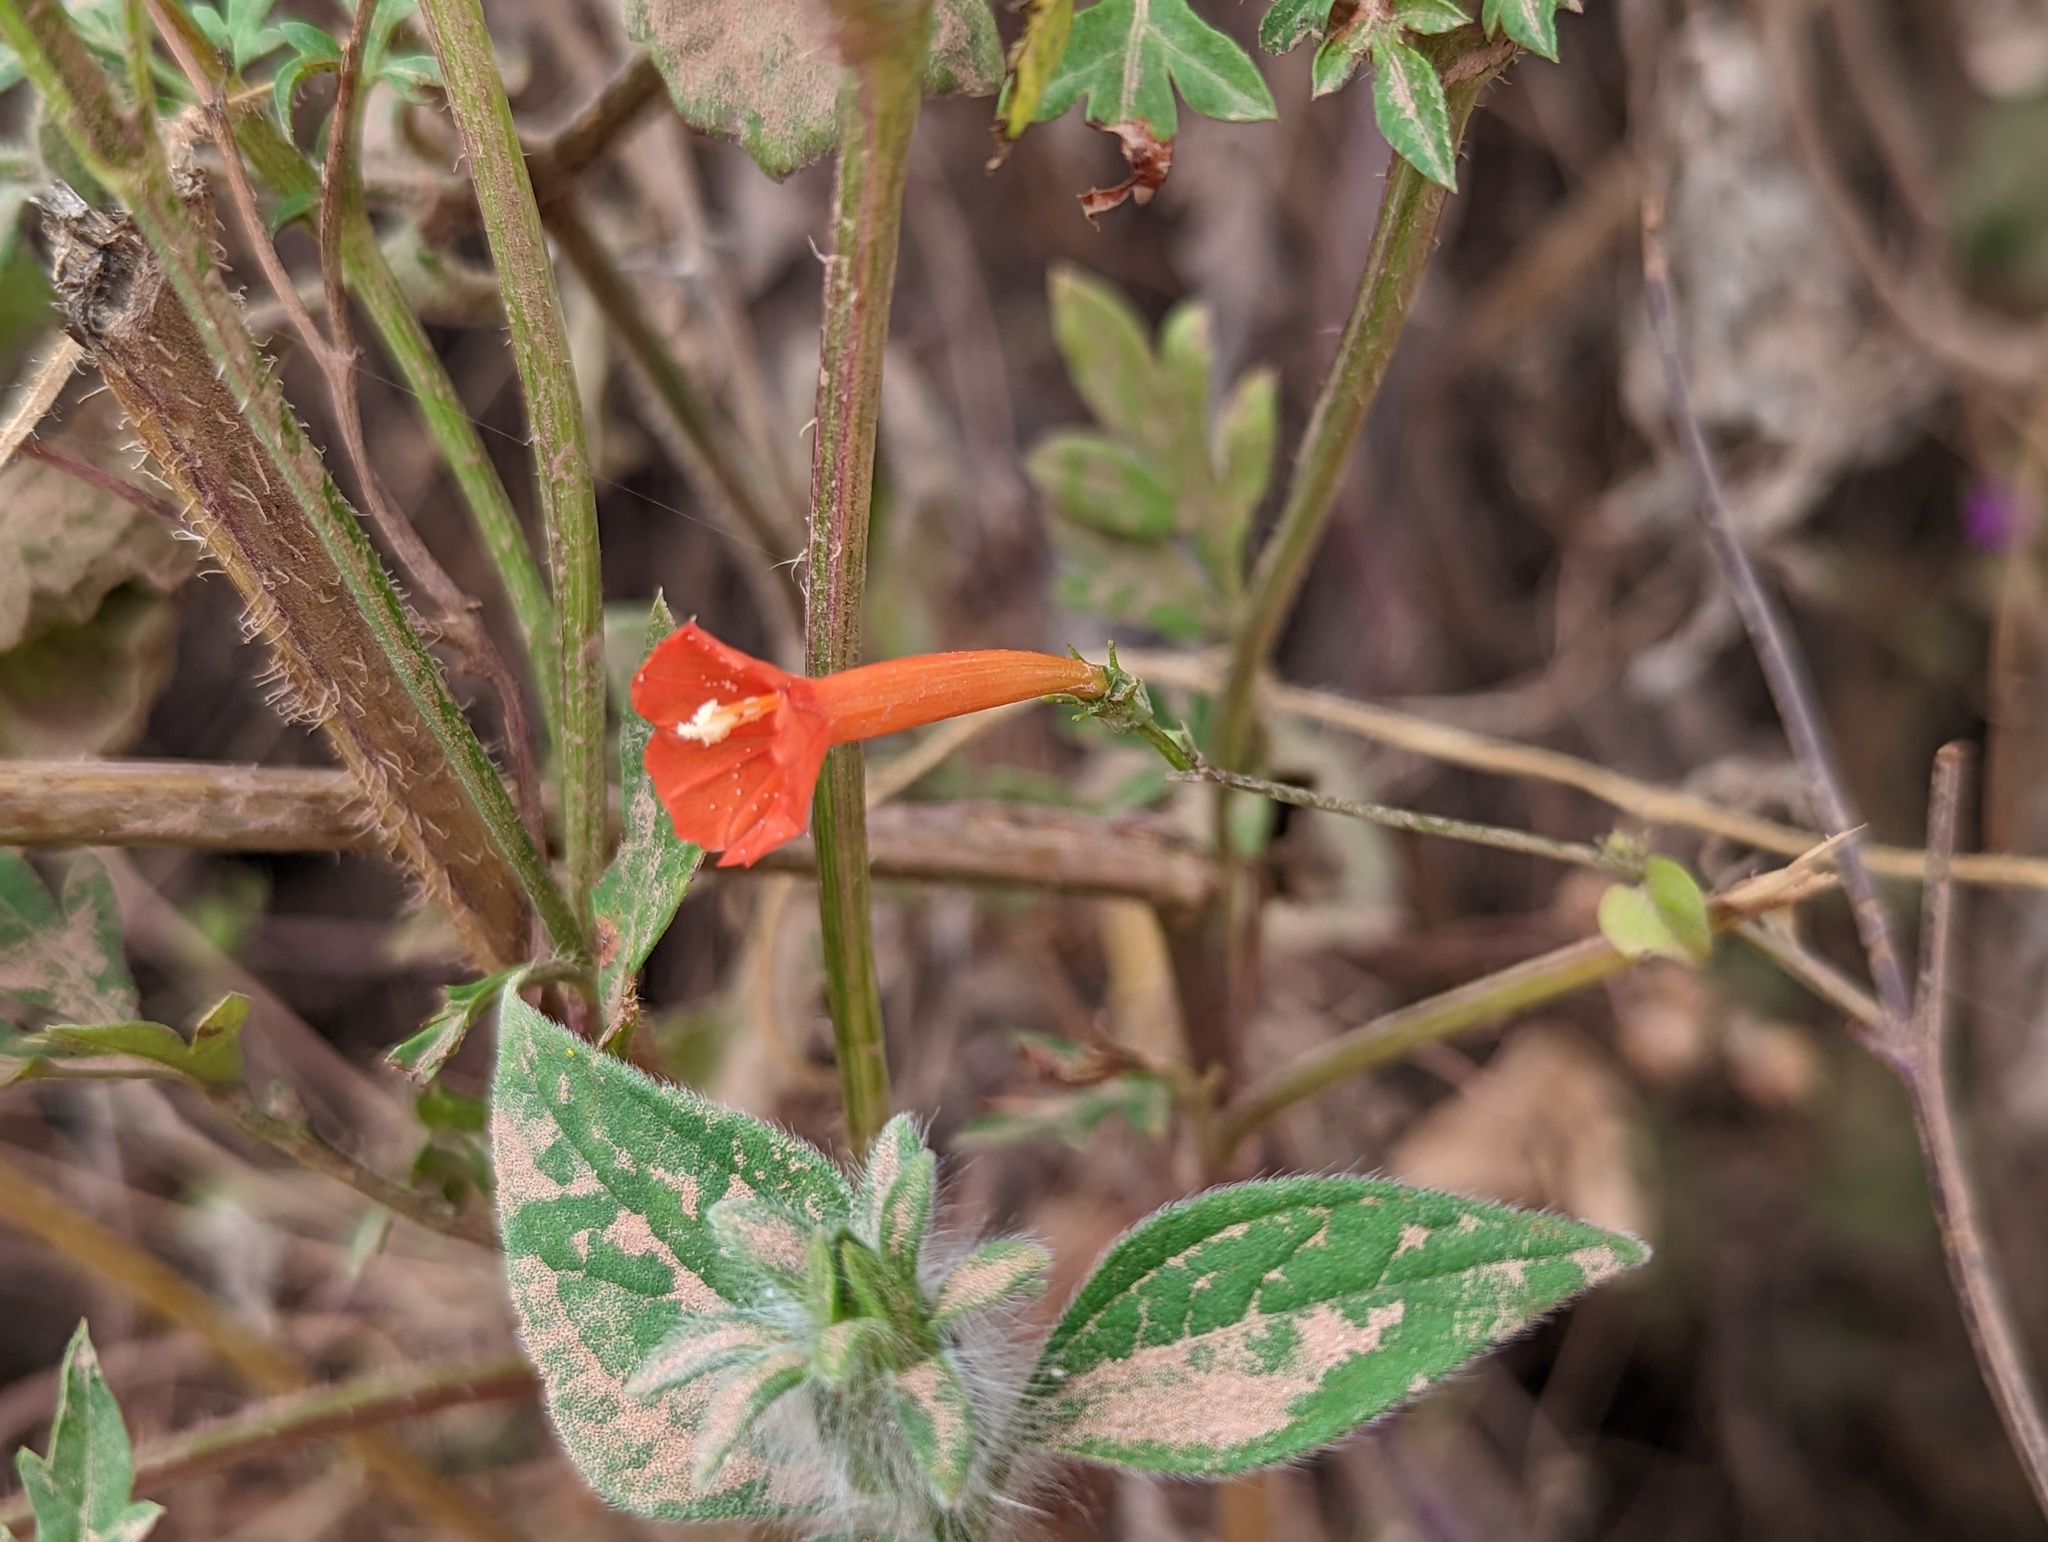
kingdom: Plantae
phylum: Tracheophyta
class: Magnoliopsida
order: Solanales
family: Convolvulaceae
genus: Ipomoea
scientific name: Ipomoea hederifolia
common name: Ivy-leaf morning-glory
